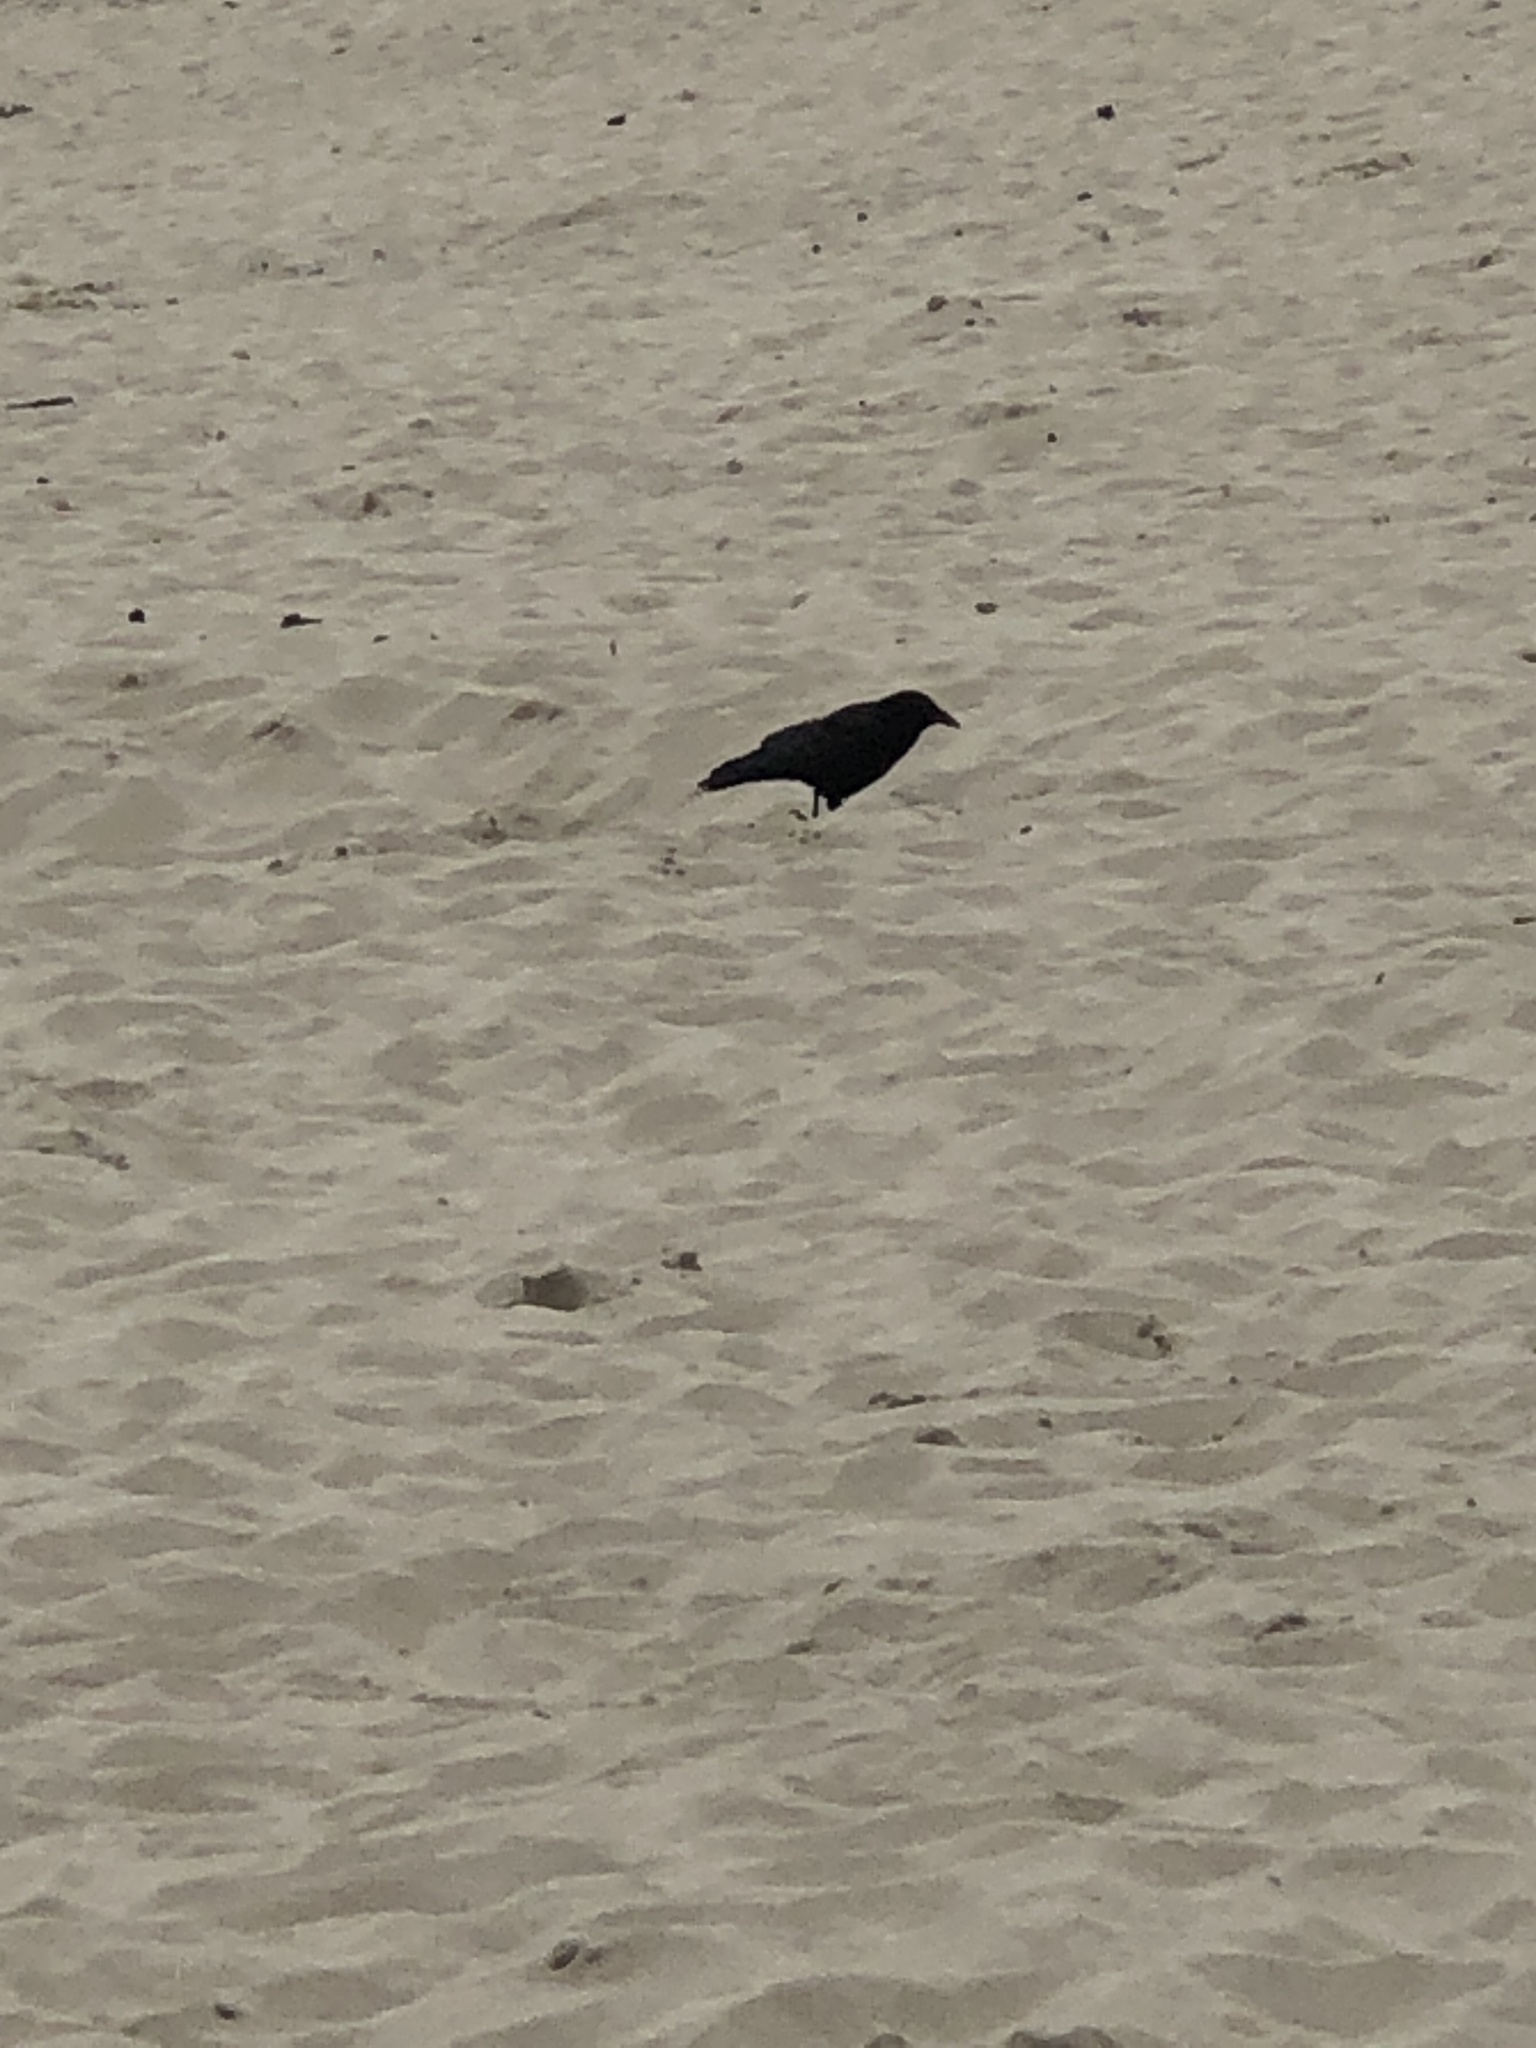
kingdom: Animalia
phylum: Chordata
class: Aves
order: Passeriformes
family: Corvidae
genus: Corvus
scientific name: Corvus corax
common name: Common raven
